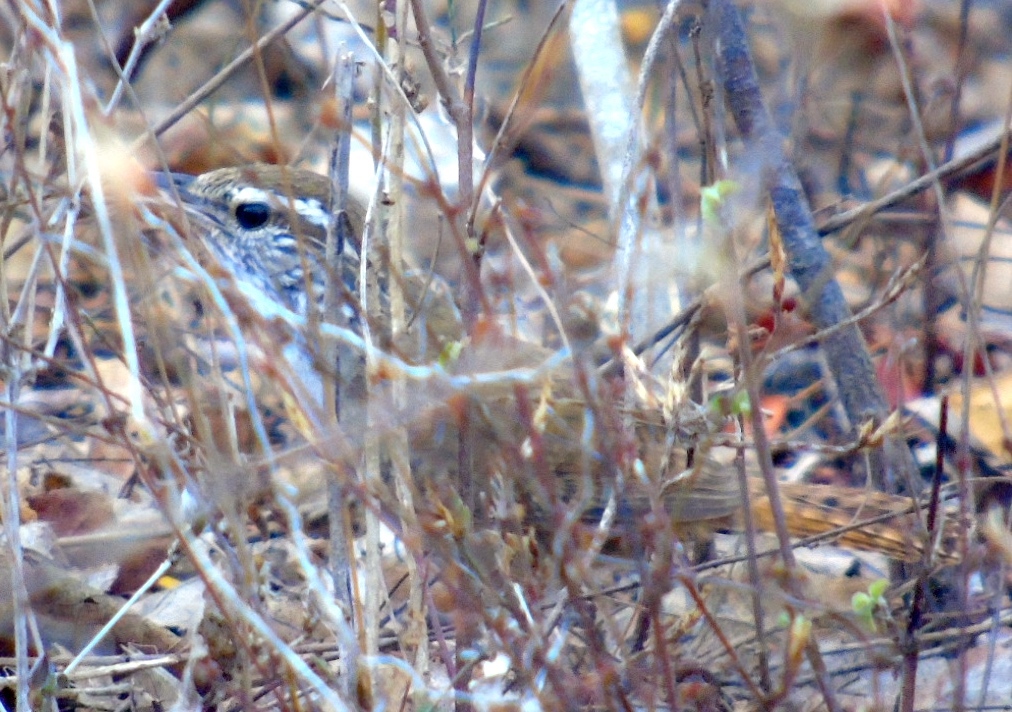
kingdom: Animalia
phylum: Chordata
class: Aves
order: Passeriformes
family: Troglodytidae
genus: Thryophilus
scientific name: Thryophilus sinaloa
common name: Sinaloa wren
